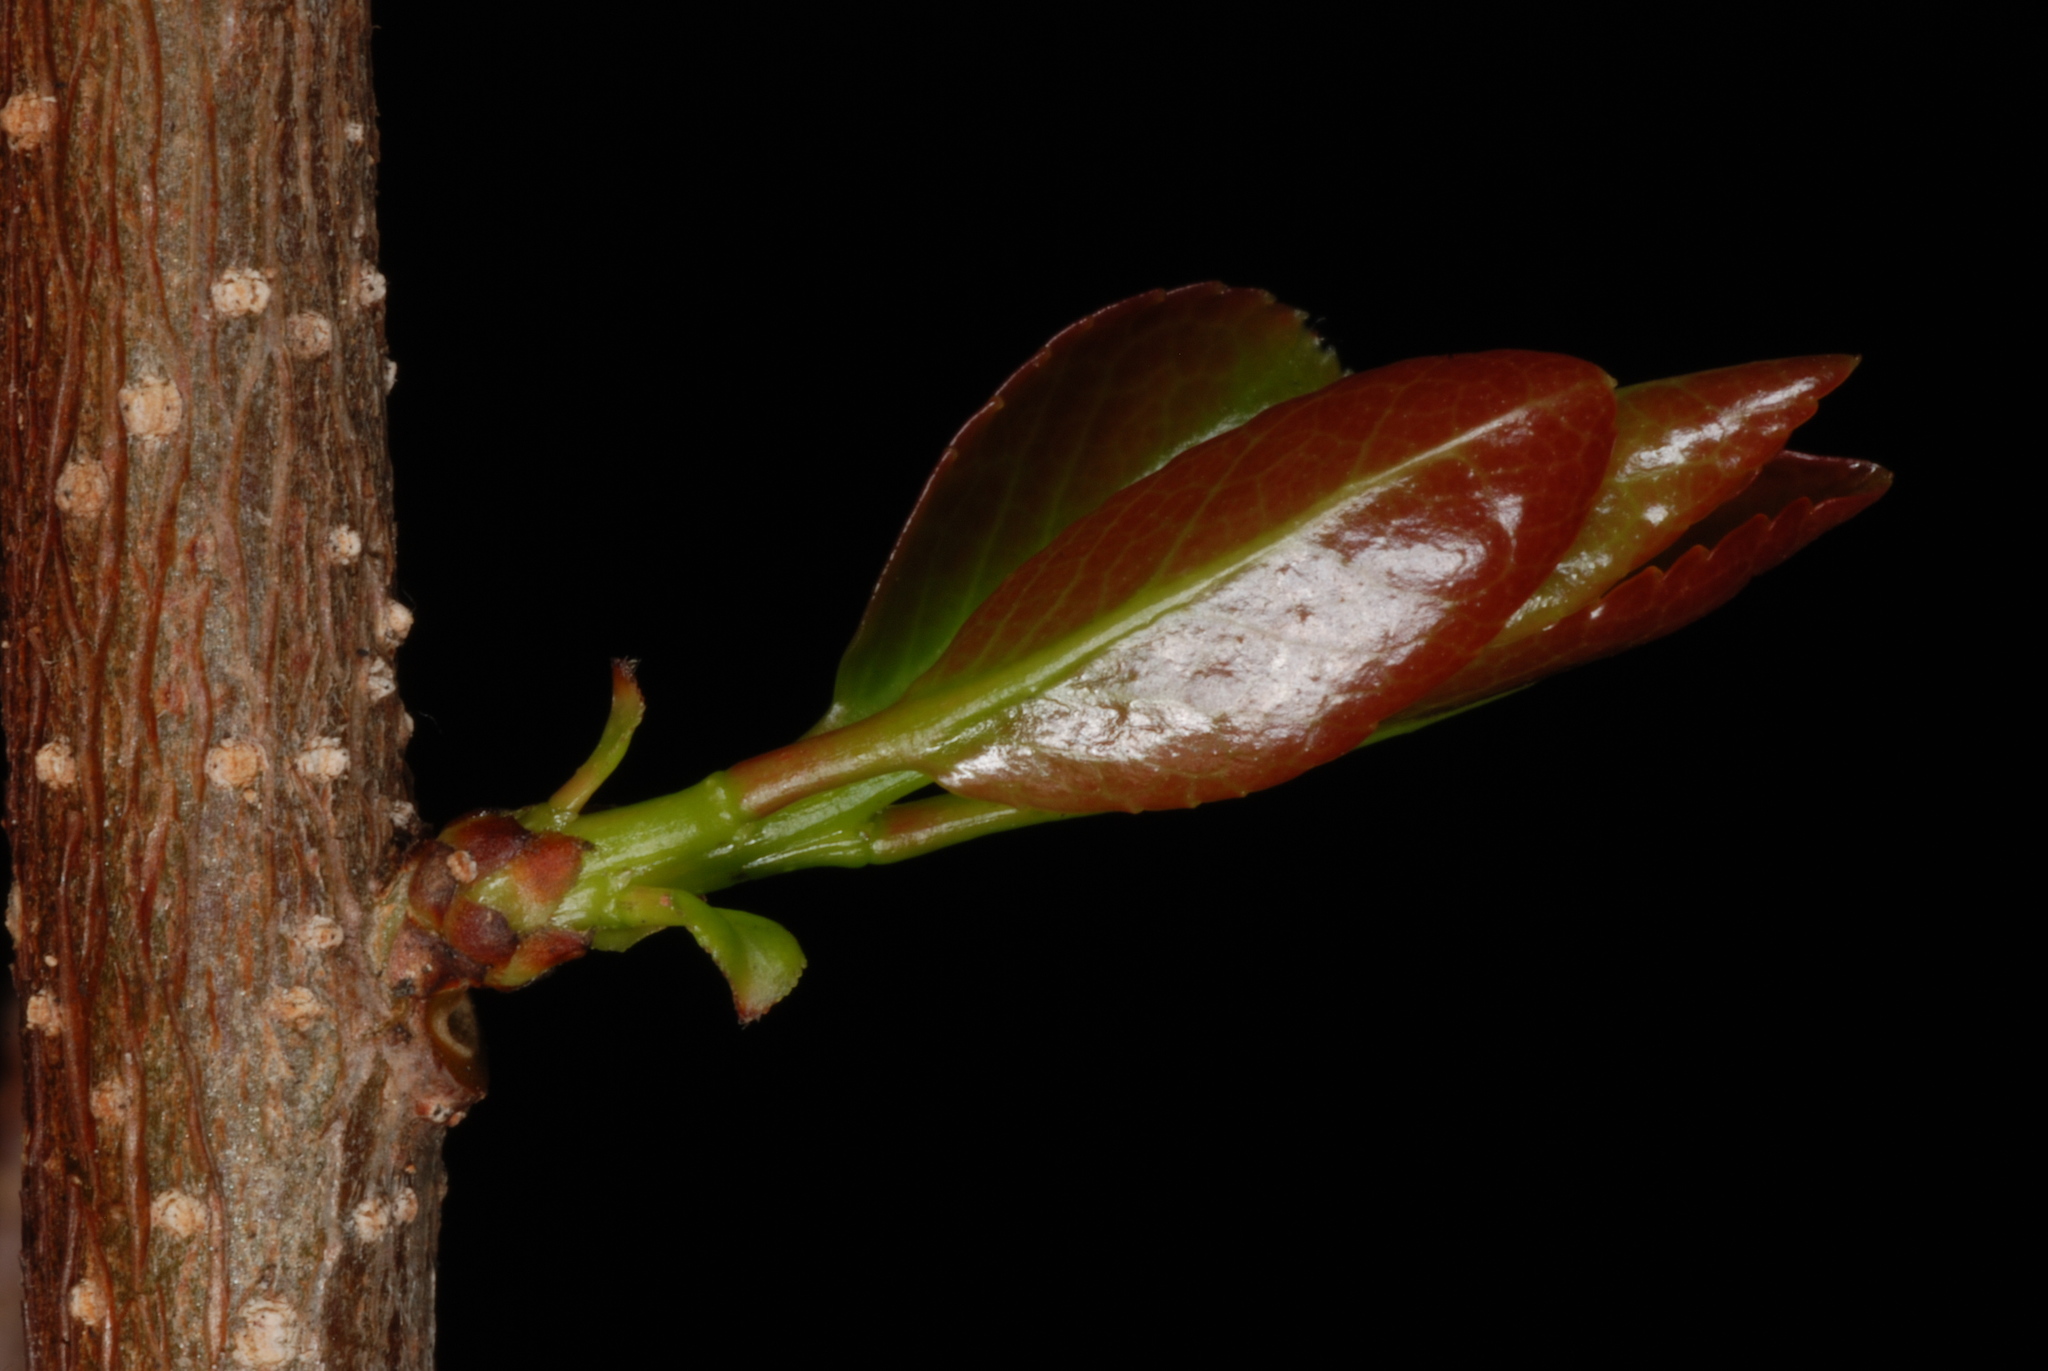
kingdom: Plantae
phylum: Tracheophyta
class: Magnoliopsida
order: Malpighiales
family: Salicaceae
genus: Flacourtia
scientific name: Flacourtia indica
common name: Governor's plum
